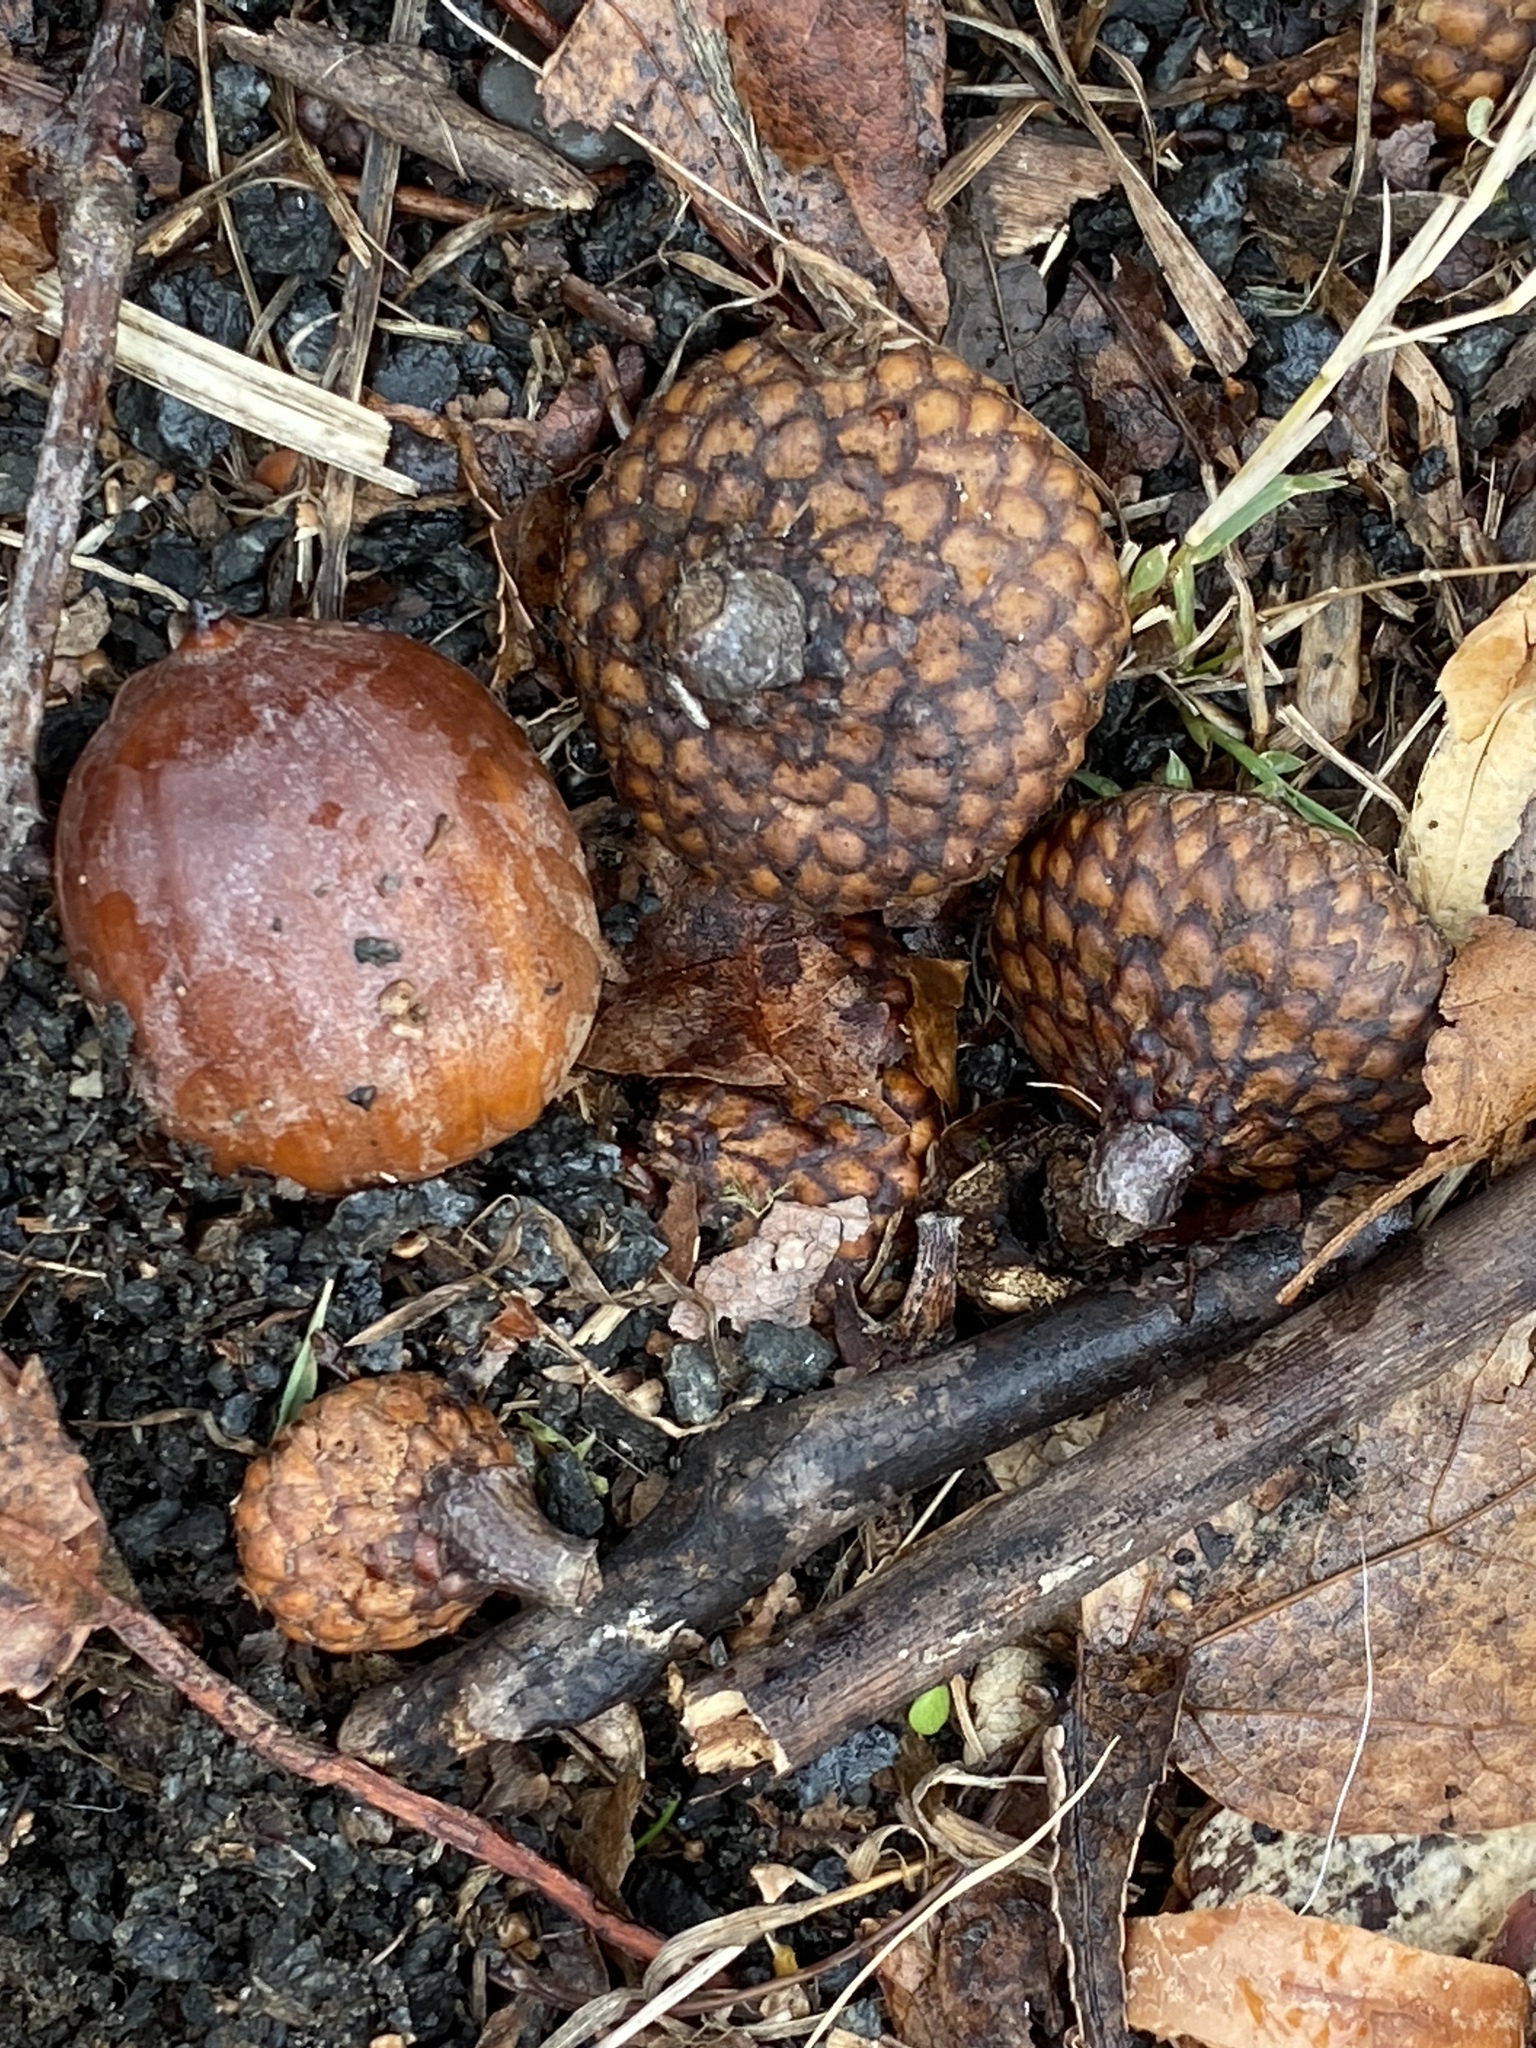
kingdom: Plantae
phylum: Tracheophyta
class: Magnoliopsida
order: Fagales
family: Fagaceae
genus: Quercus
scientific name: Quercus rubra
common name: Red oak
